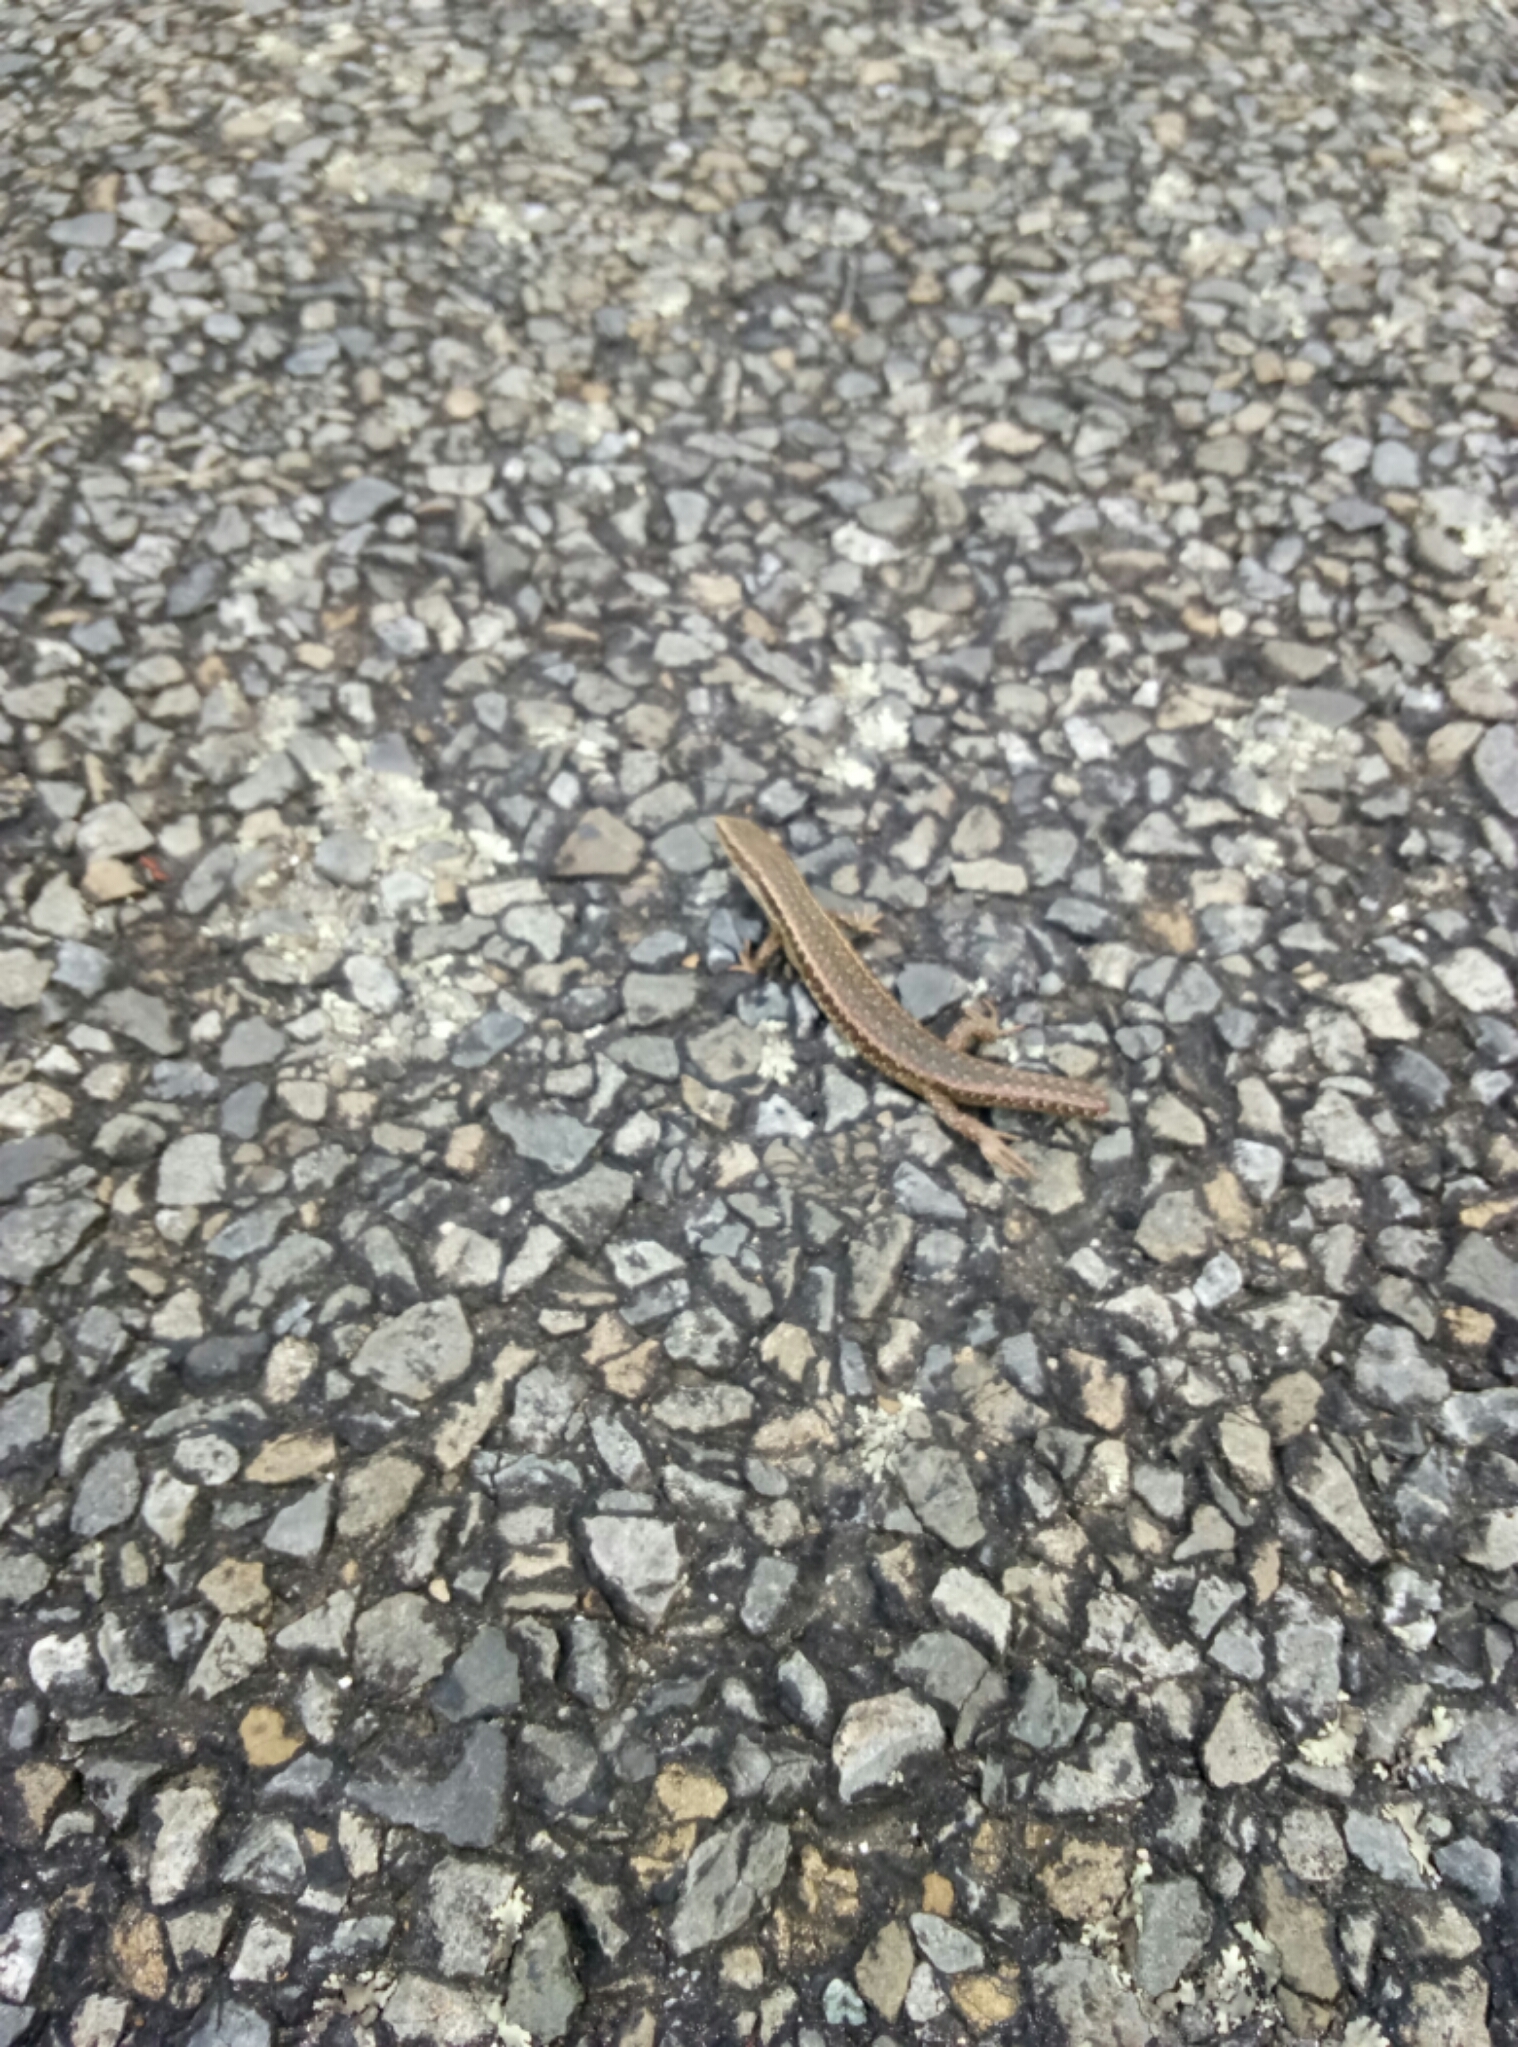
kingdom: Animalia
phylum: Chordata
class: Squamata
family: Scincidae
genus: Oligosoma
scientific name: Oligosoma polychroma
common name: Common new zealand skink
